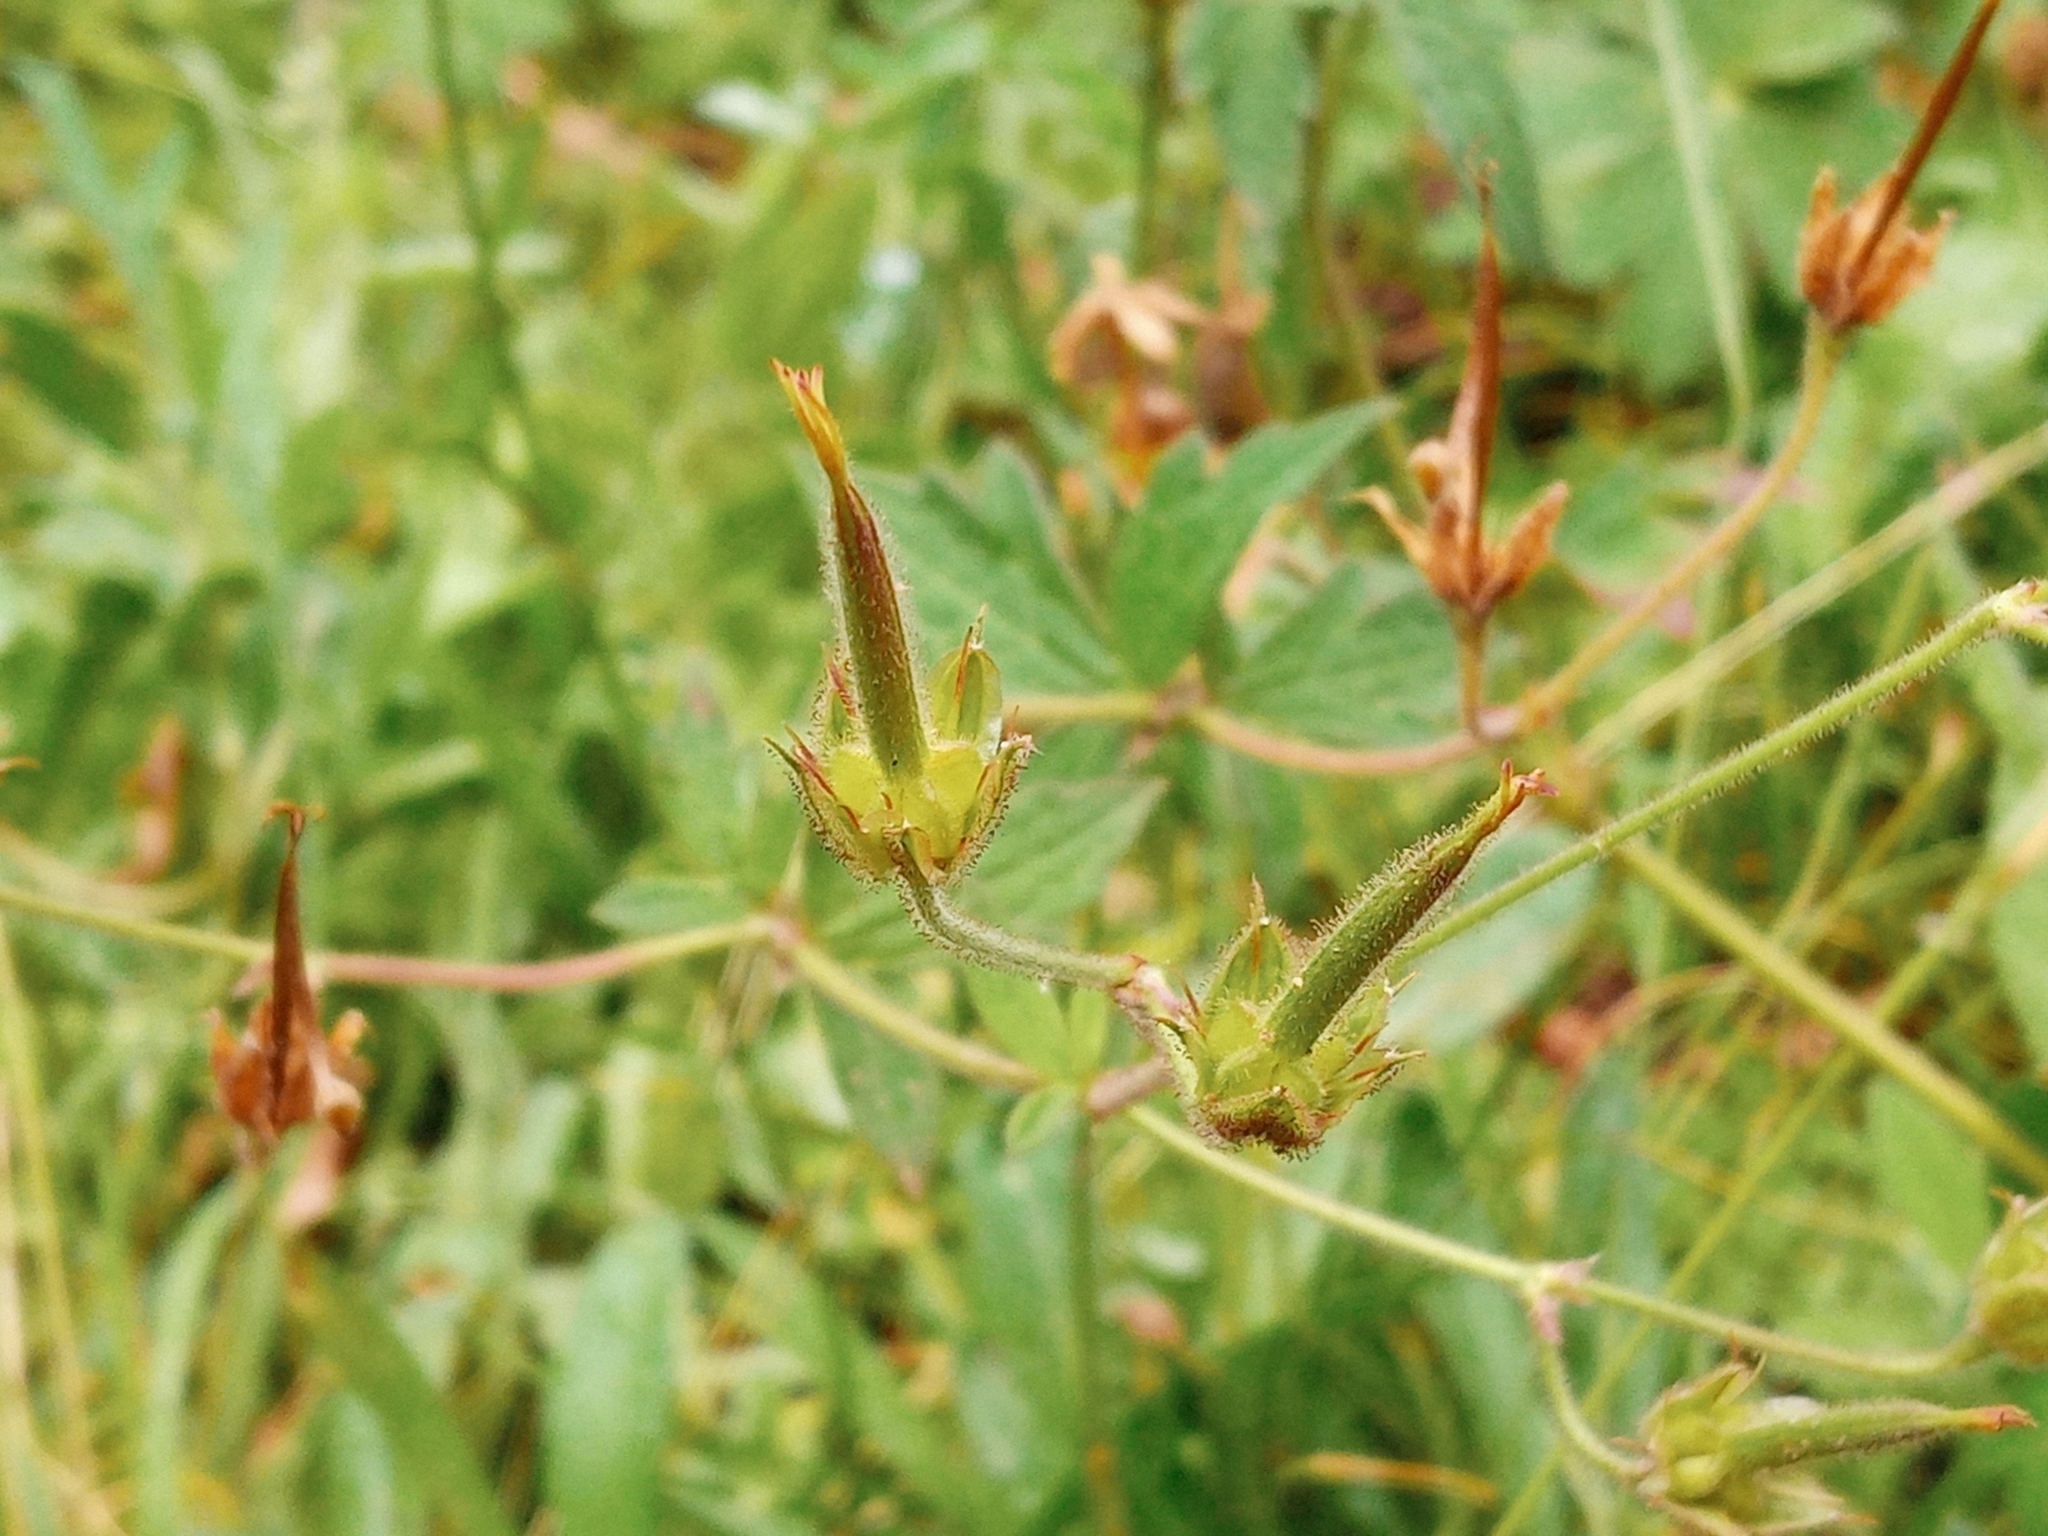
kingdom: Plantae
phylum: Tracheophyta
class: Magnoliopsida
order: Geraniales
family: Geraniaceae
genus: Geranium
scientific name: Geranium richardsonii
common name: Richardson's crane's-bill
